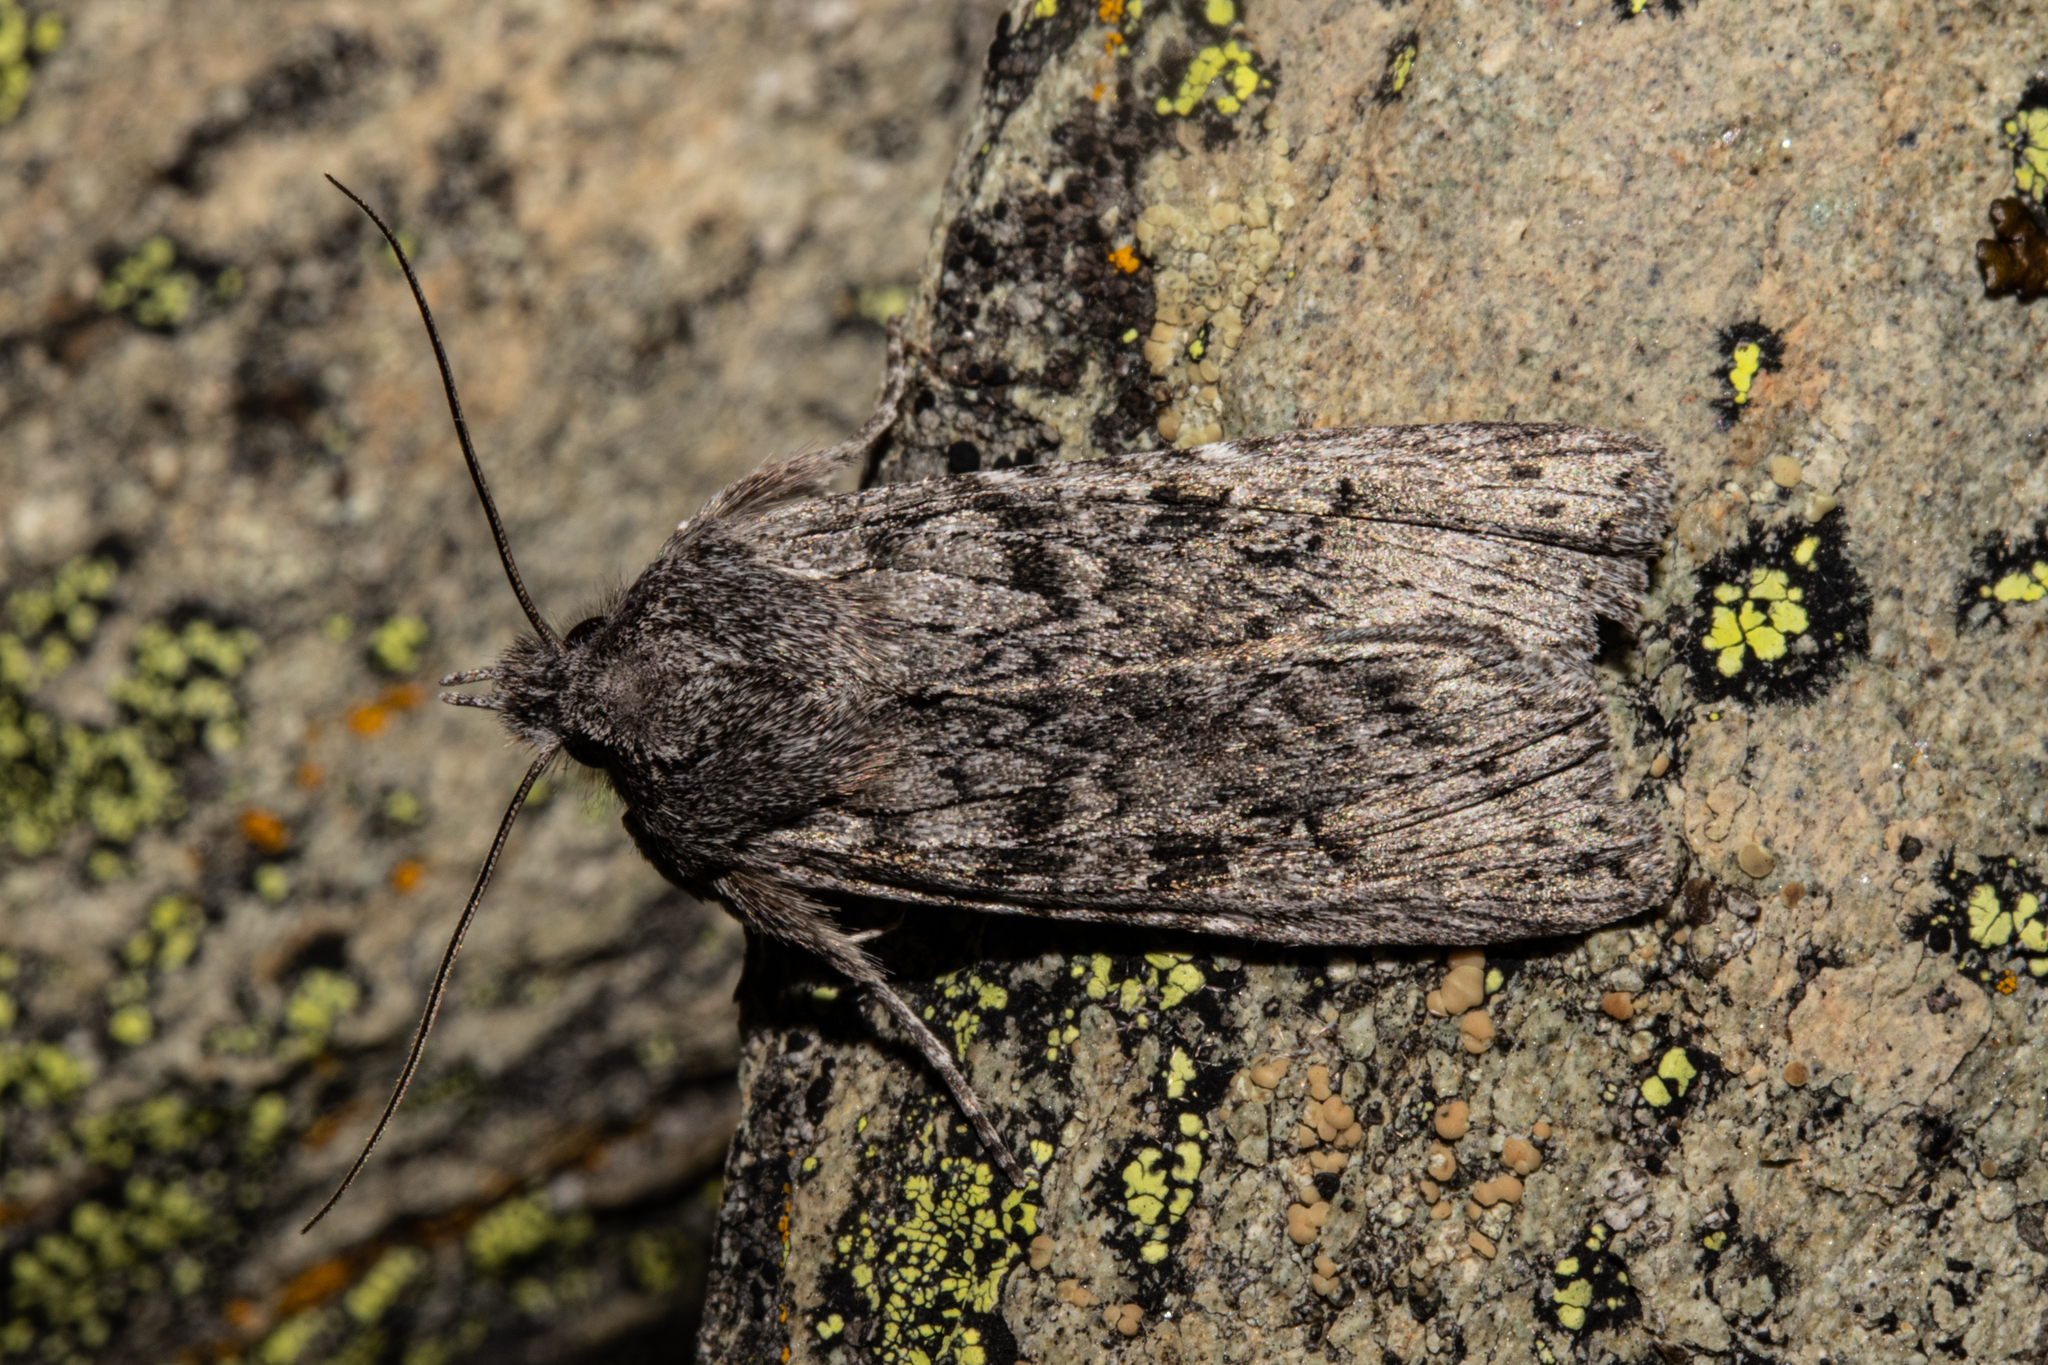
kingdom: Animalia
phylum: Arthropoda
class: Insecta
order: Lepidoptera
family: Noctuidae
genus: Physetica
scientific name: Physetica phricias
